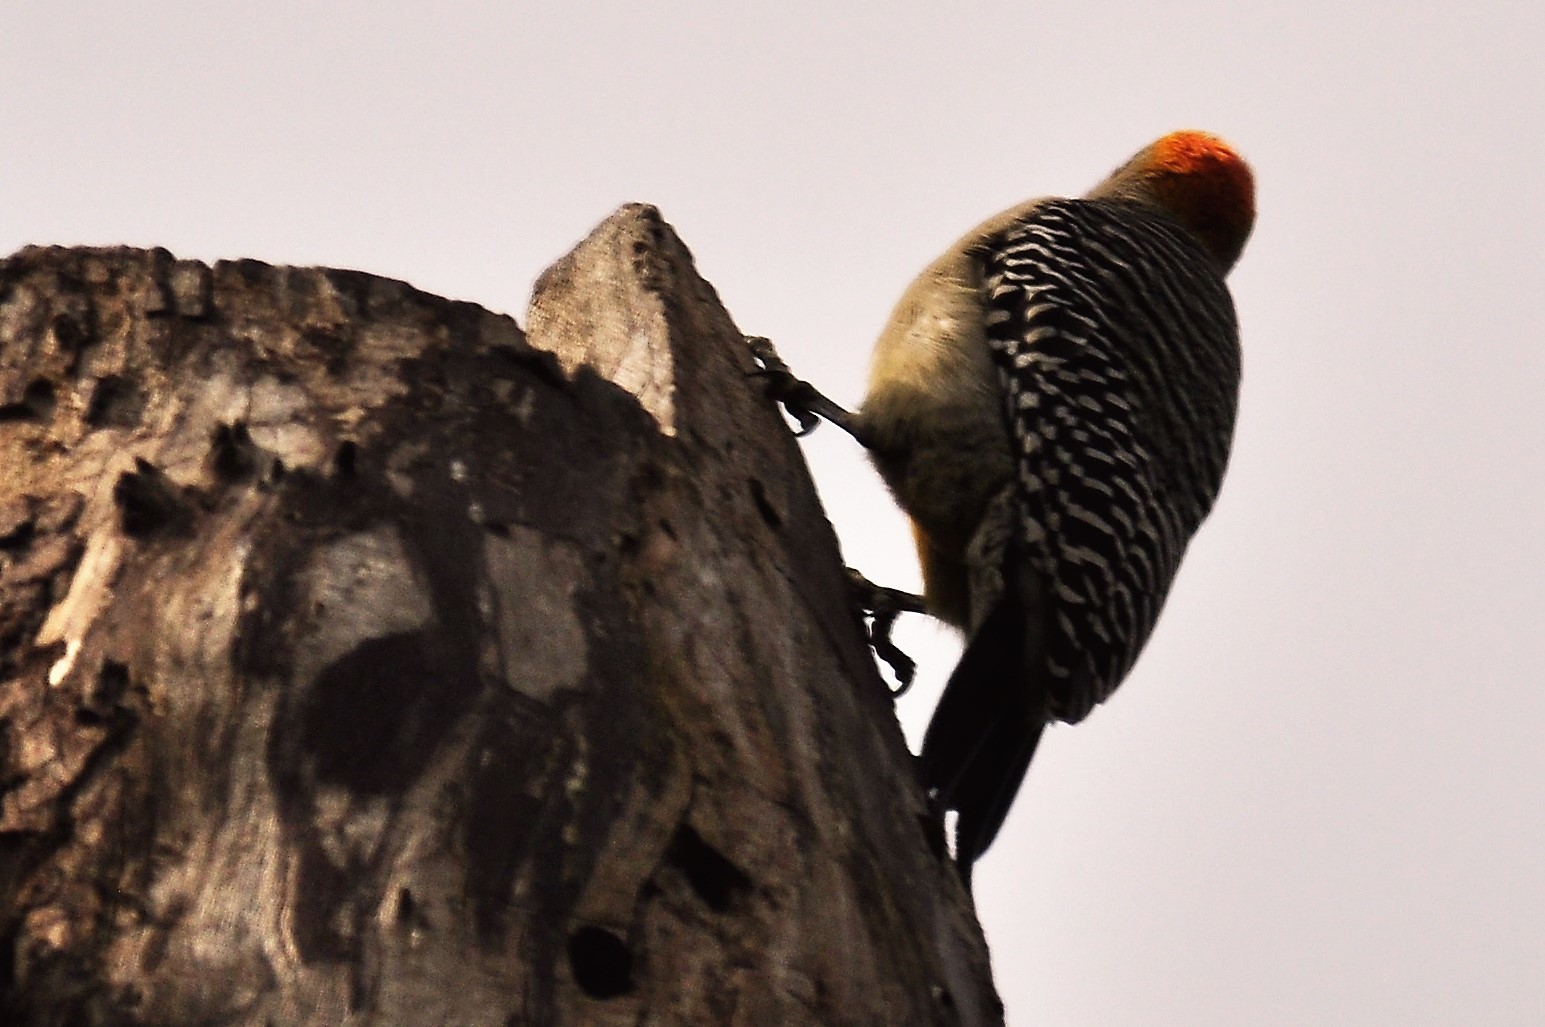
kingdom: Animalia
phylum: Chordata
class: Aves
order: Piciformes
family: Picidae
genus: Melanerpes
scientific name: Melanerpes aurifrons
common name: Golden-fronted woodpecker
